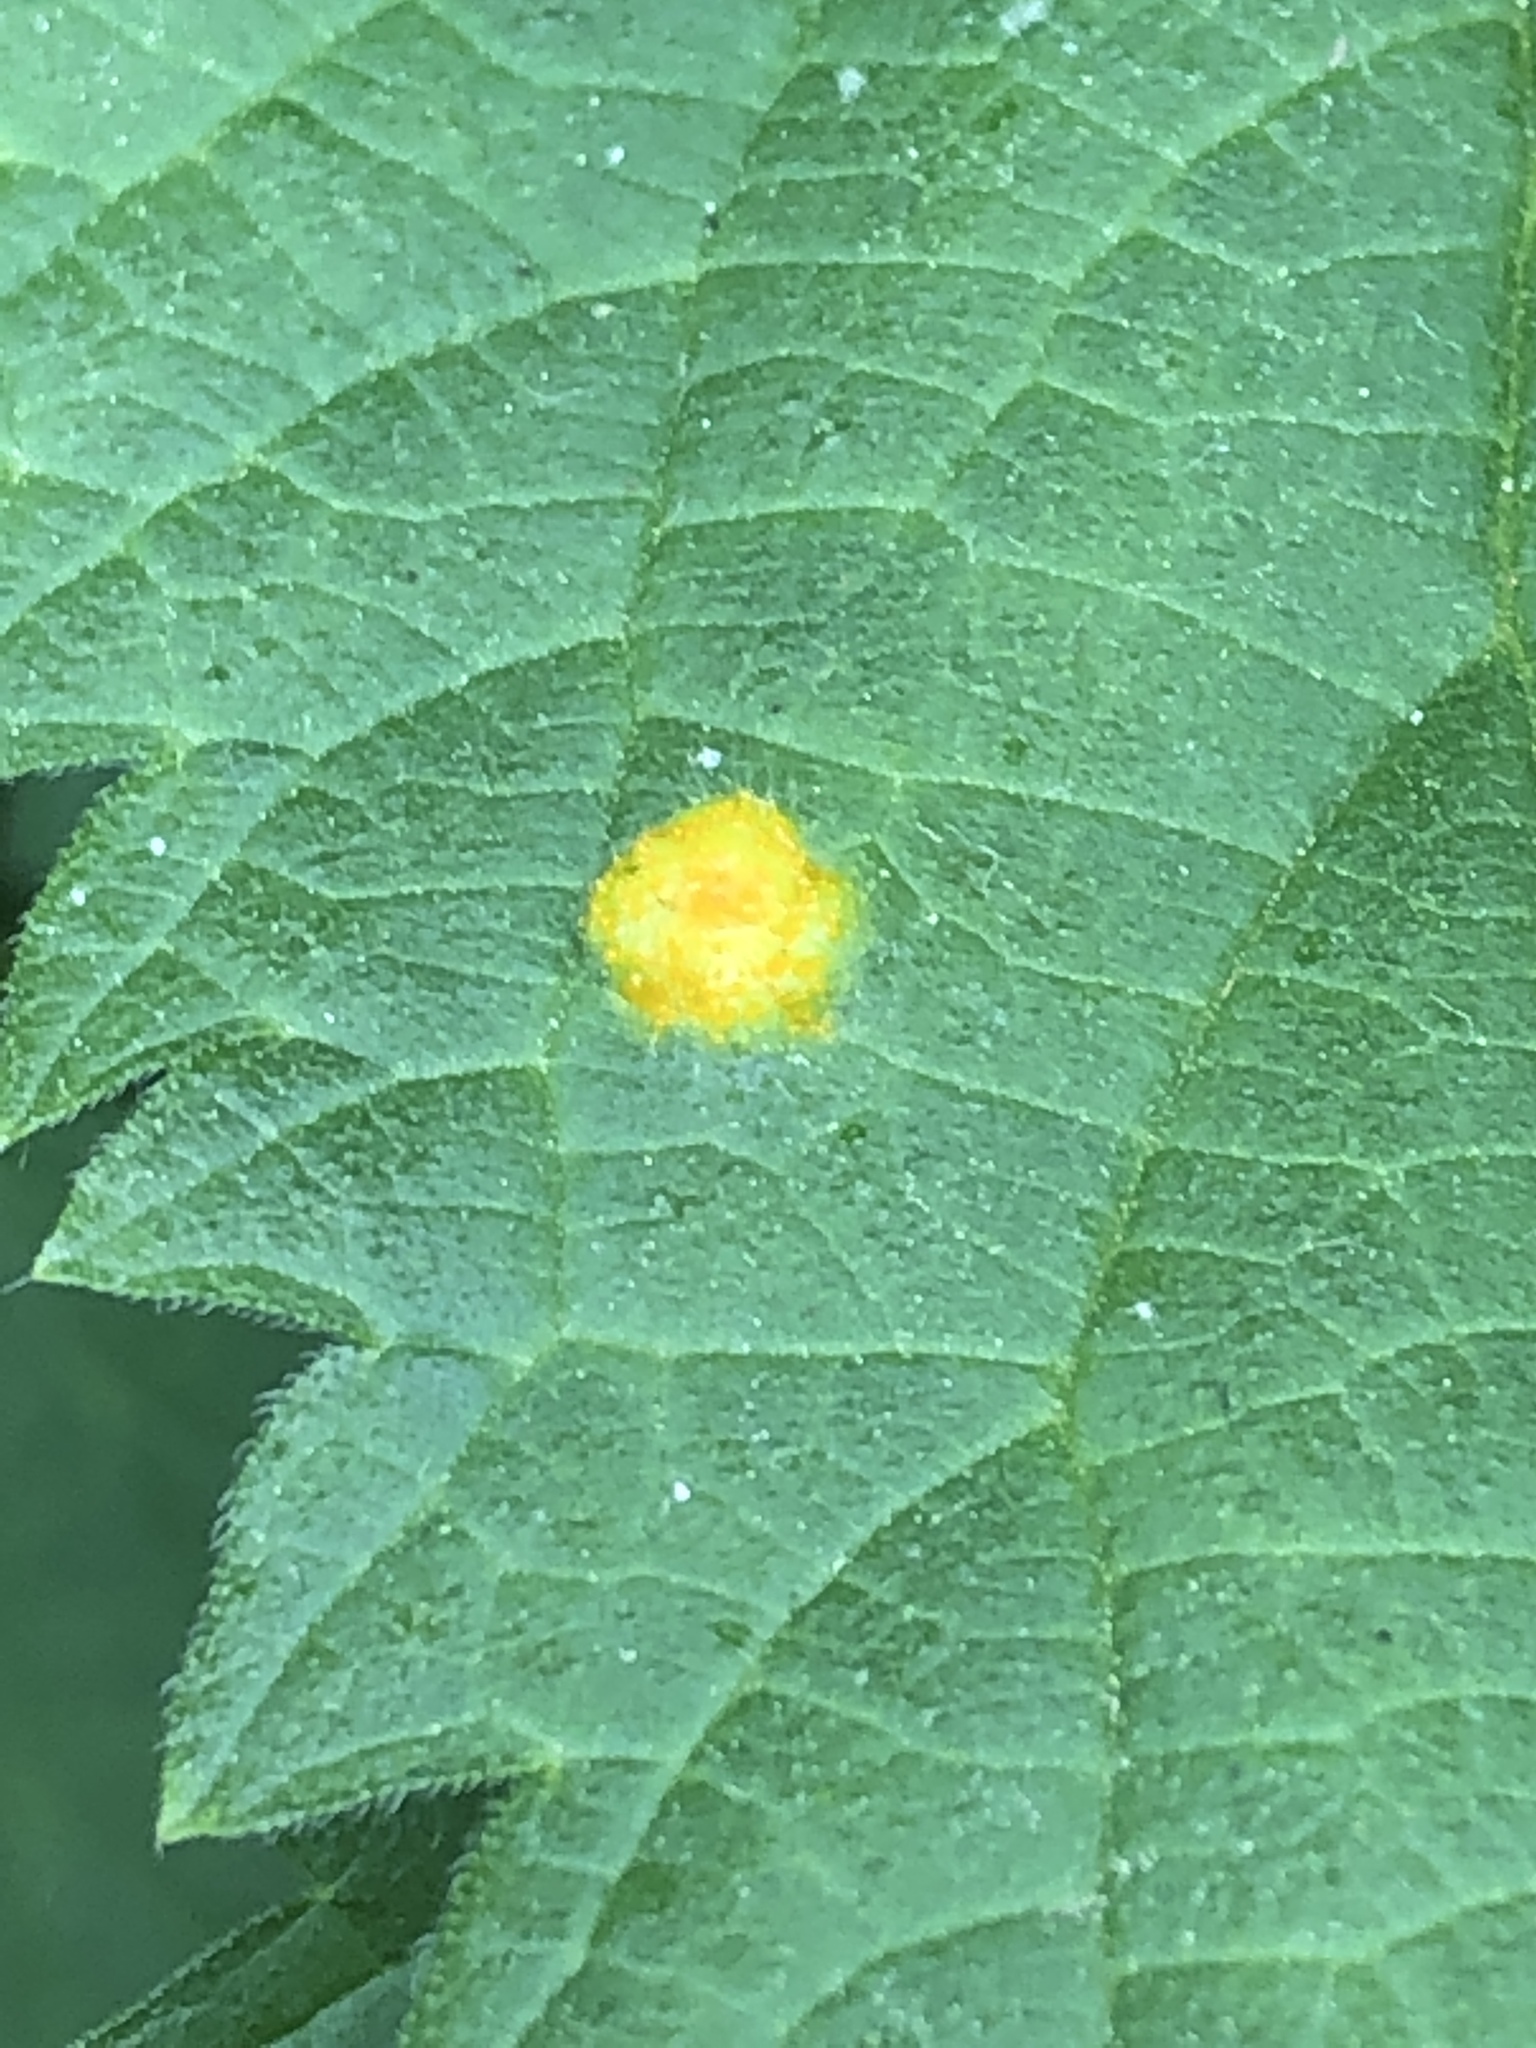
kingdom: Fungi
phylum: Basidiomycota
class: Pucciniomycetes
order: Pucciniales
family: Pucciniaceae
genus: Puccinia
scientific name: Puccinia urticata
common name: Nettle clustercup rust fungus
